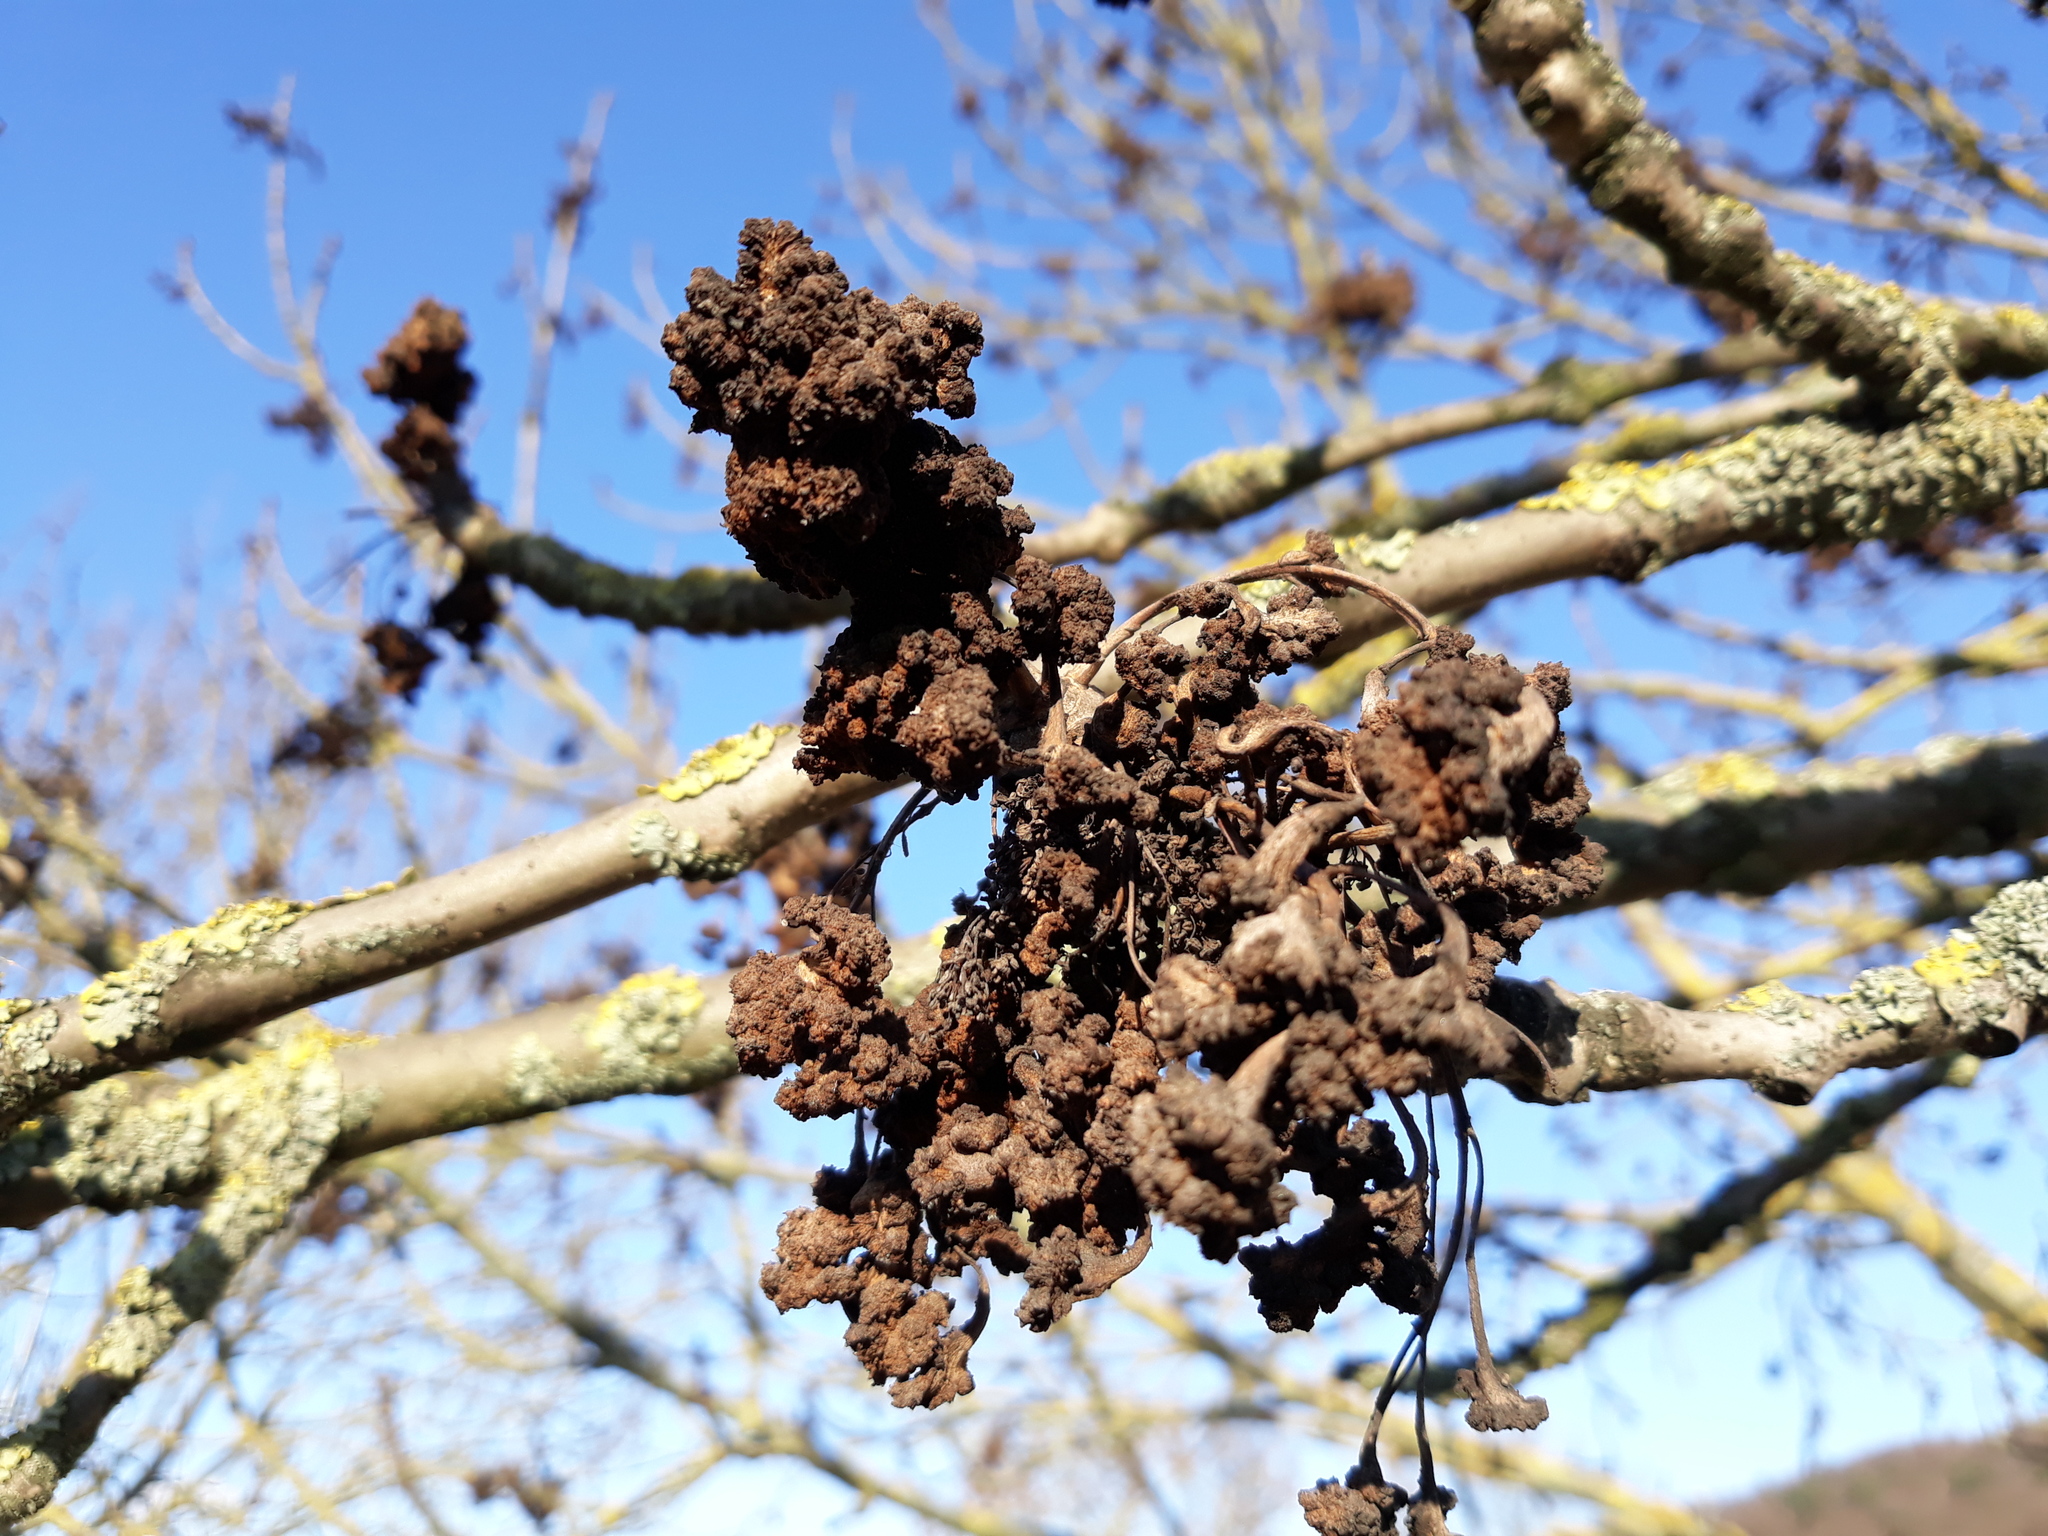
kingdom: Plantae
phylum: Tracheophyta
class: Magnoliopsida
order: Lamiales
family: Oleaceae
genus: Fraxinus
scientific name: Fraxinus excelsior
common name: European ash
